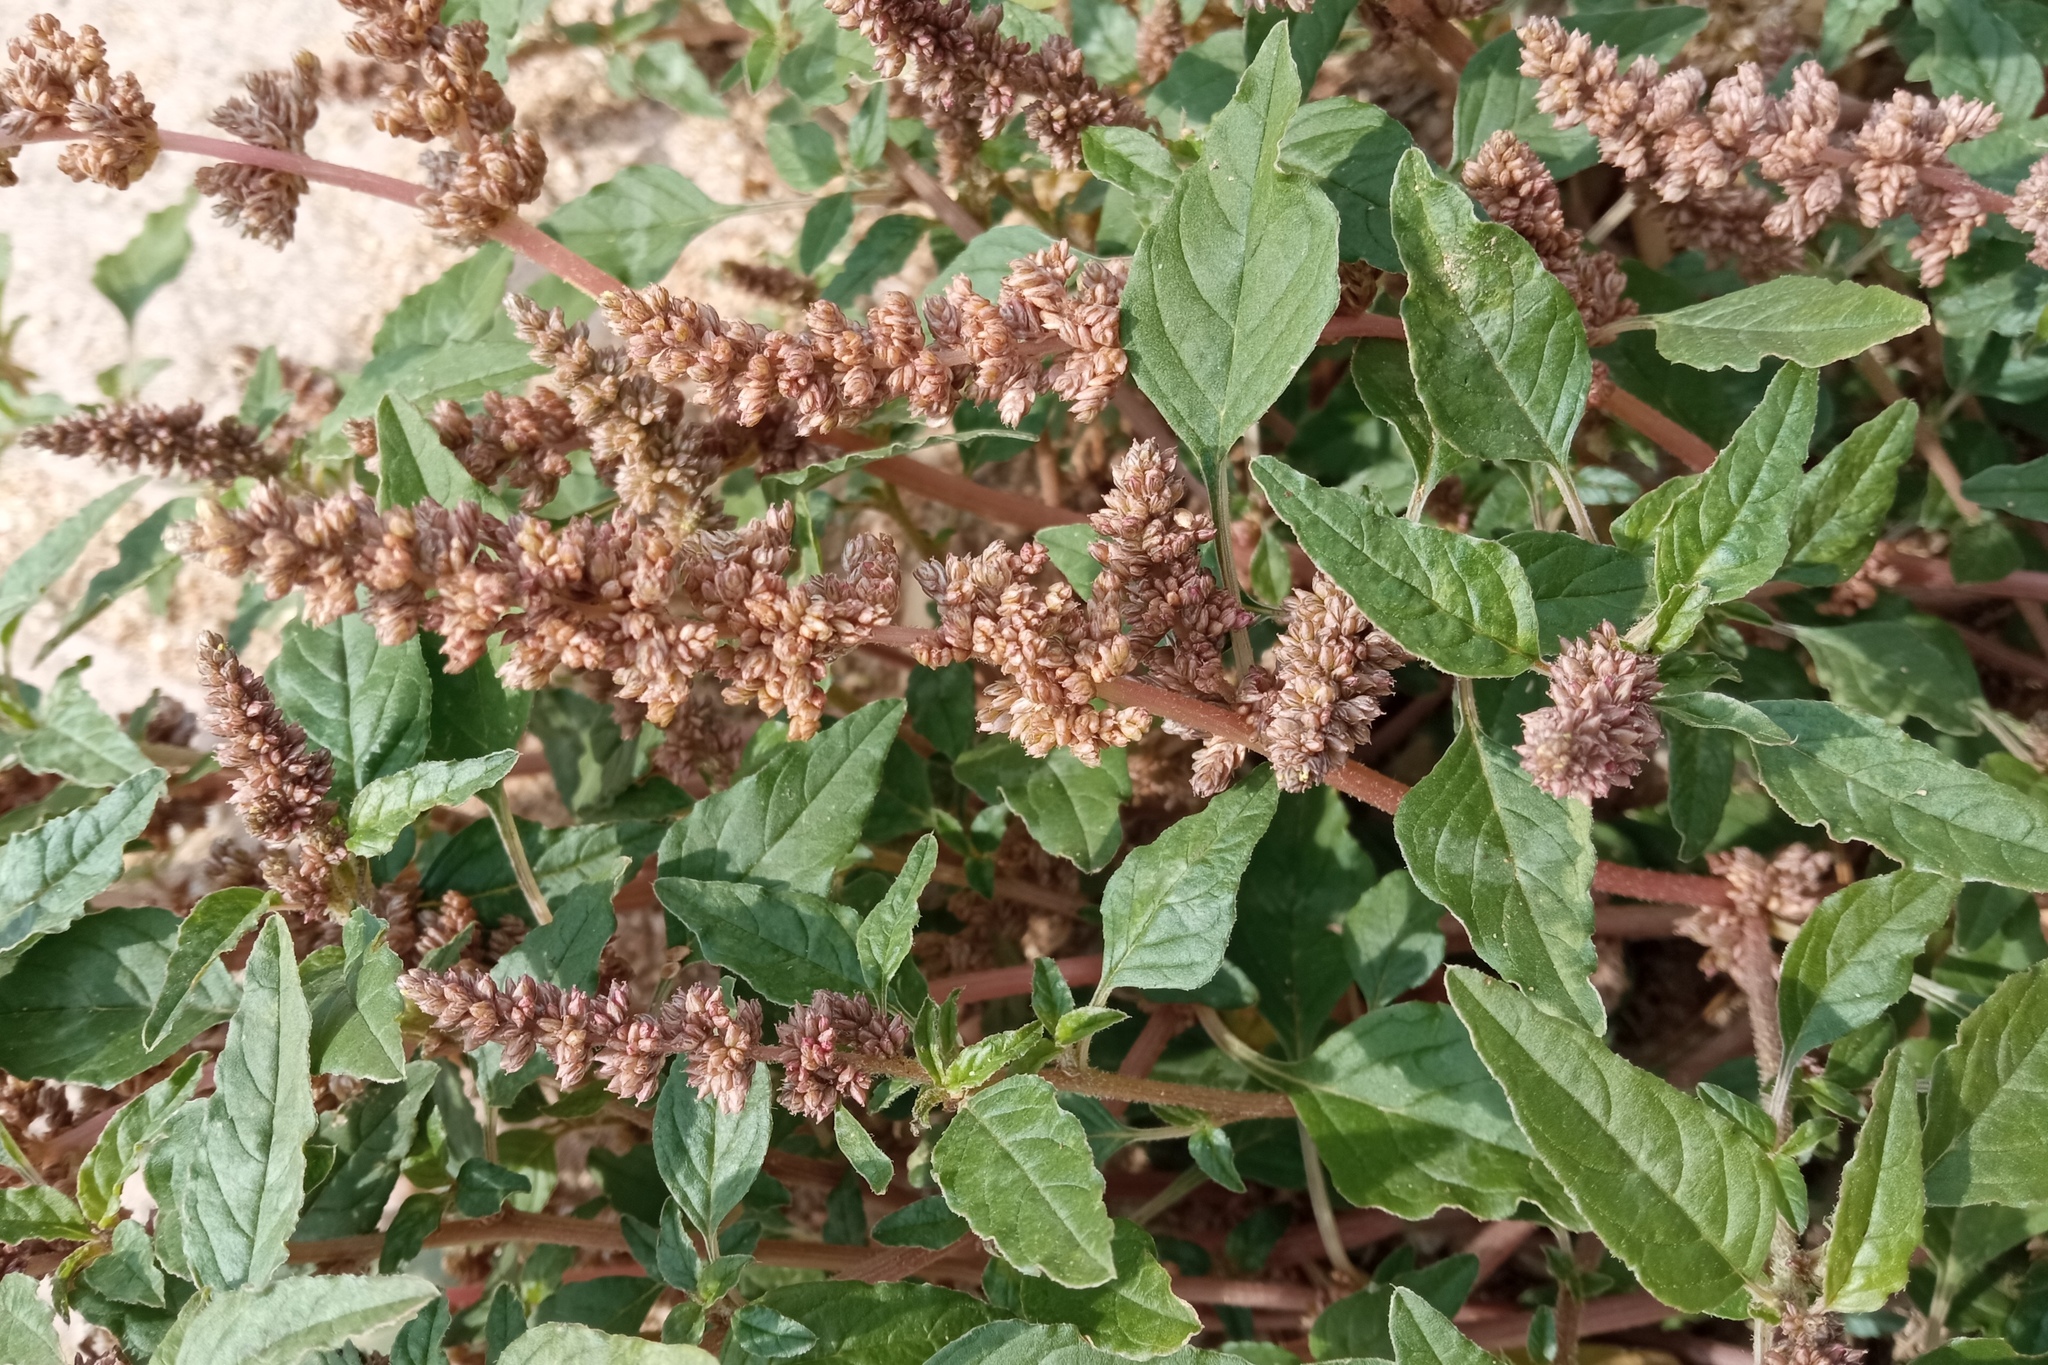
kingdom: Plantae
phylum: Tracheophyta
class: Magnoliopsida
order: Caryophyllales
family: Amaranthaceae
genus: Amaranthus
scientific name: Amaranthus deflexus
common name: Perennial pigweed
